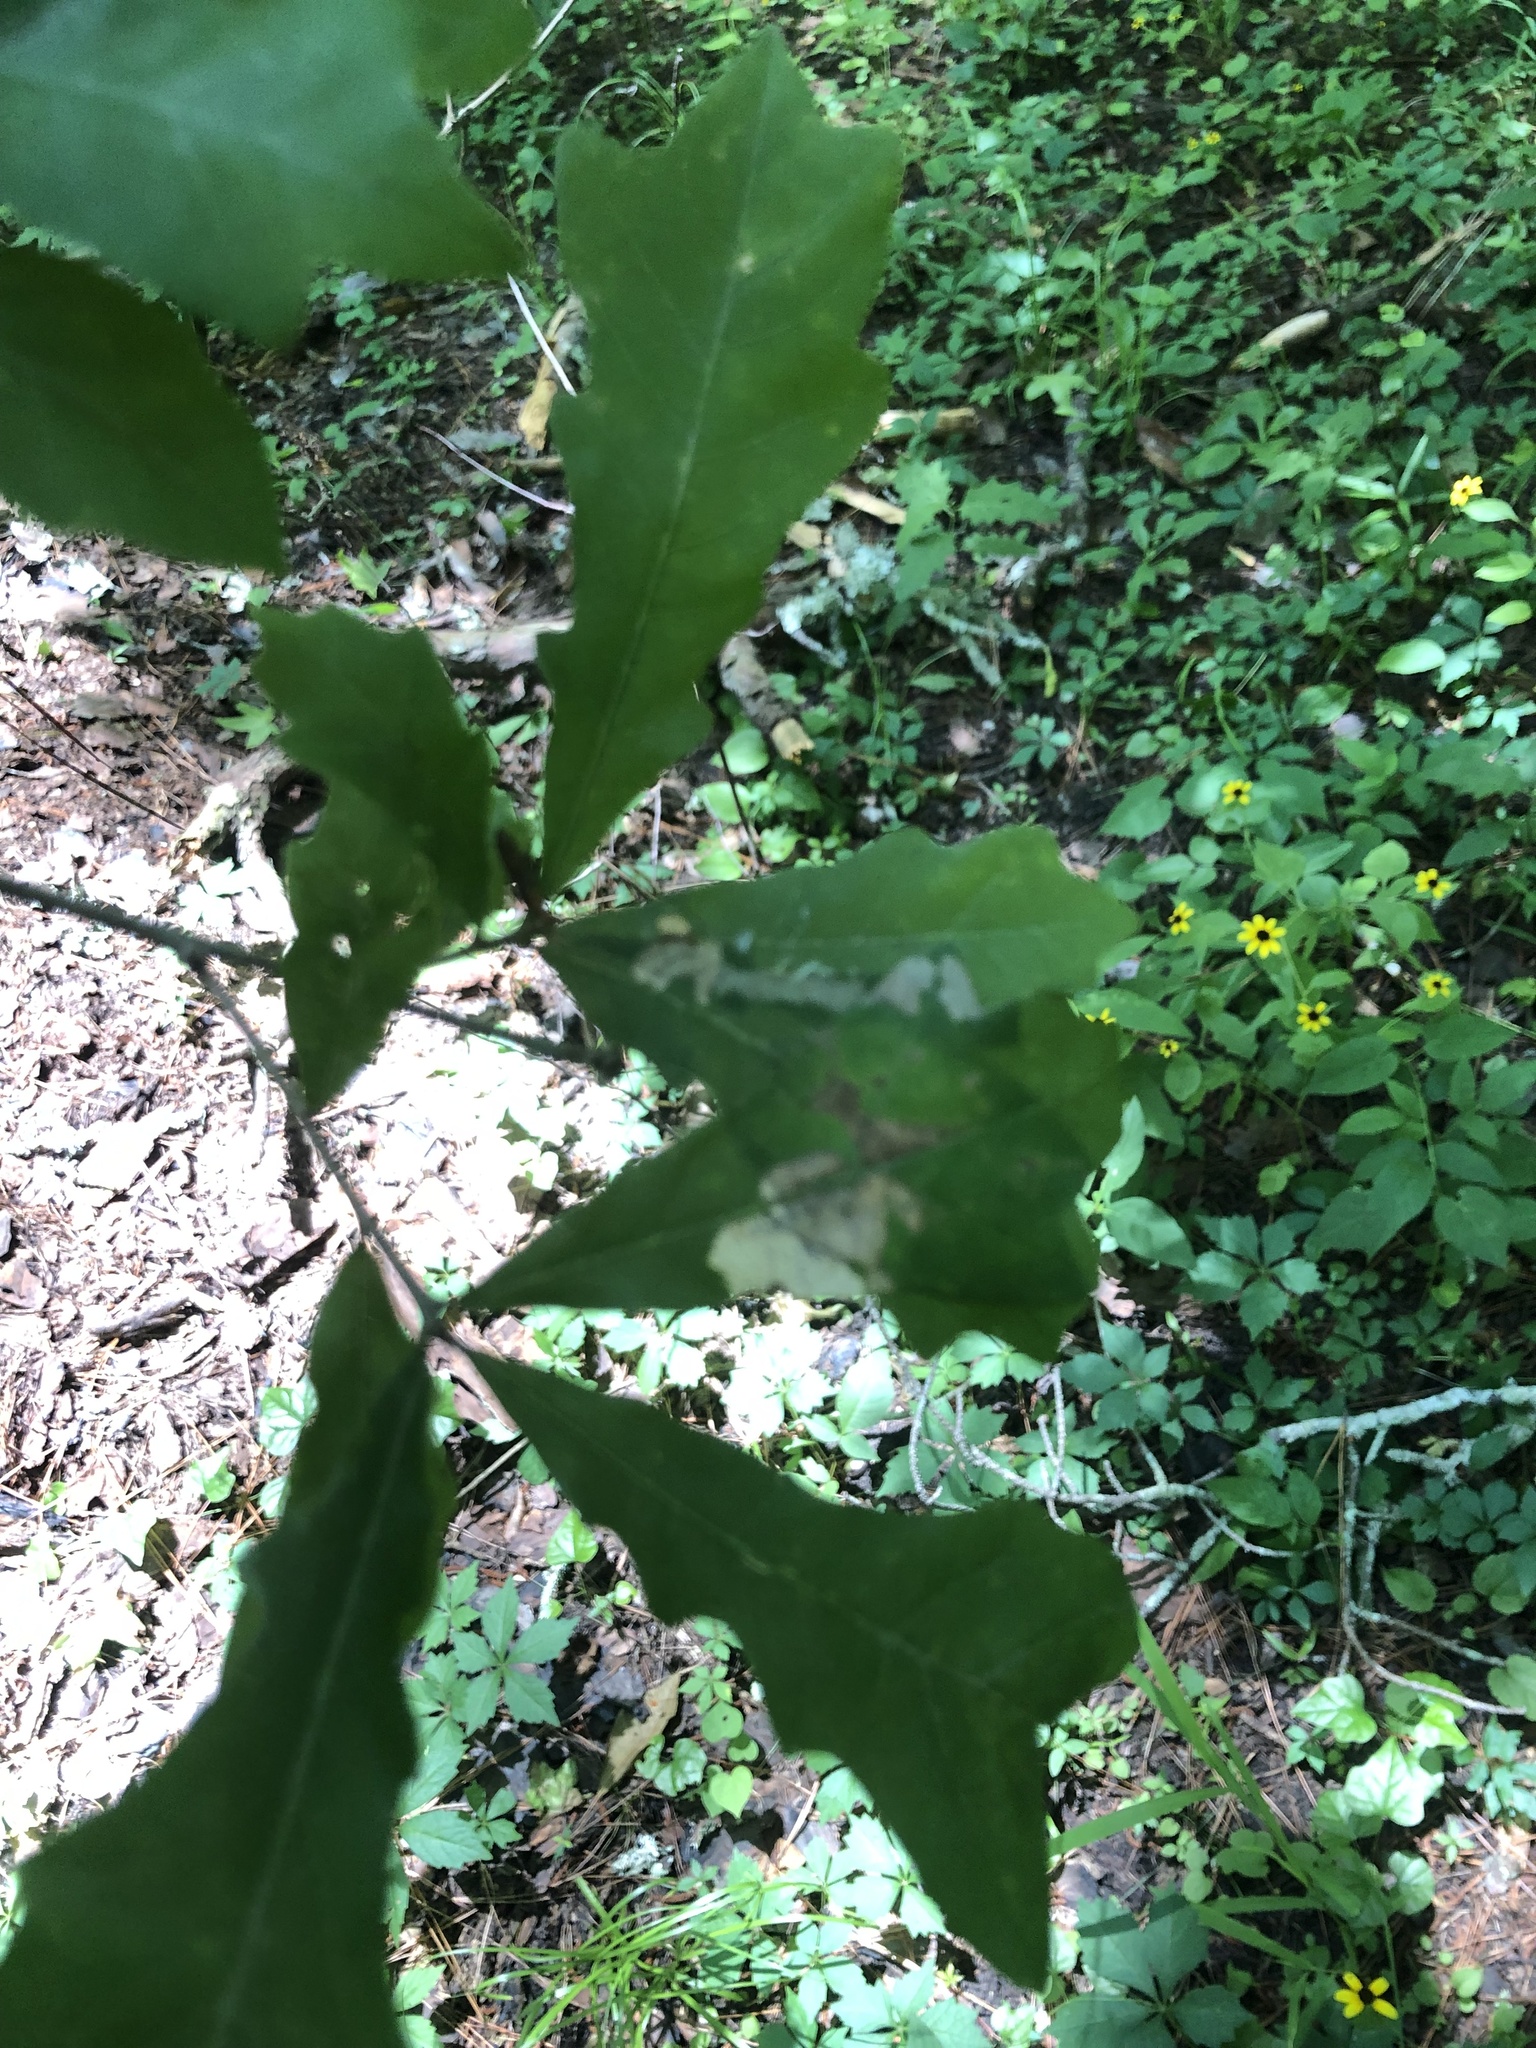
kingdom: Plantae
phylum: Tracheophyta
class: Magnoliopsida
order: Fagales
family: Fagaceae
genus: Quercus
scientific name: Quercus sinuata
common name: Durand oak
